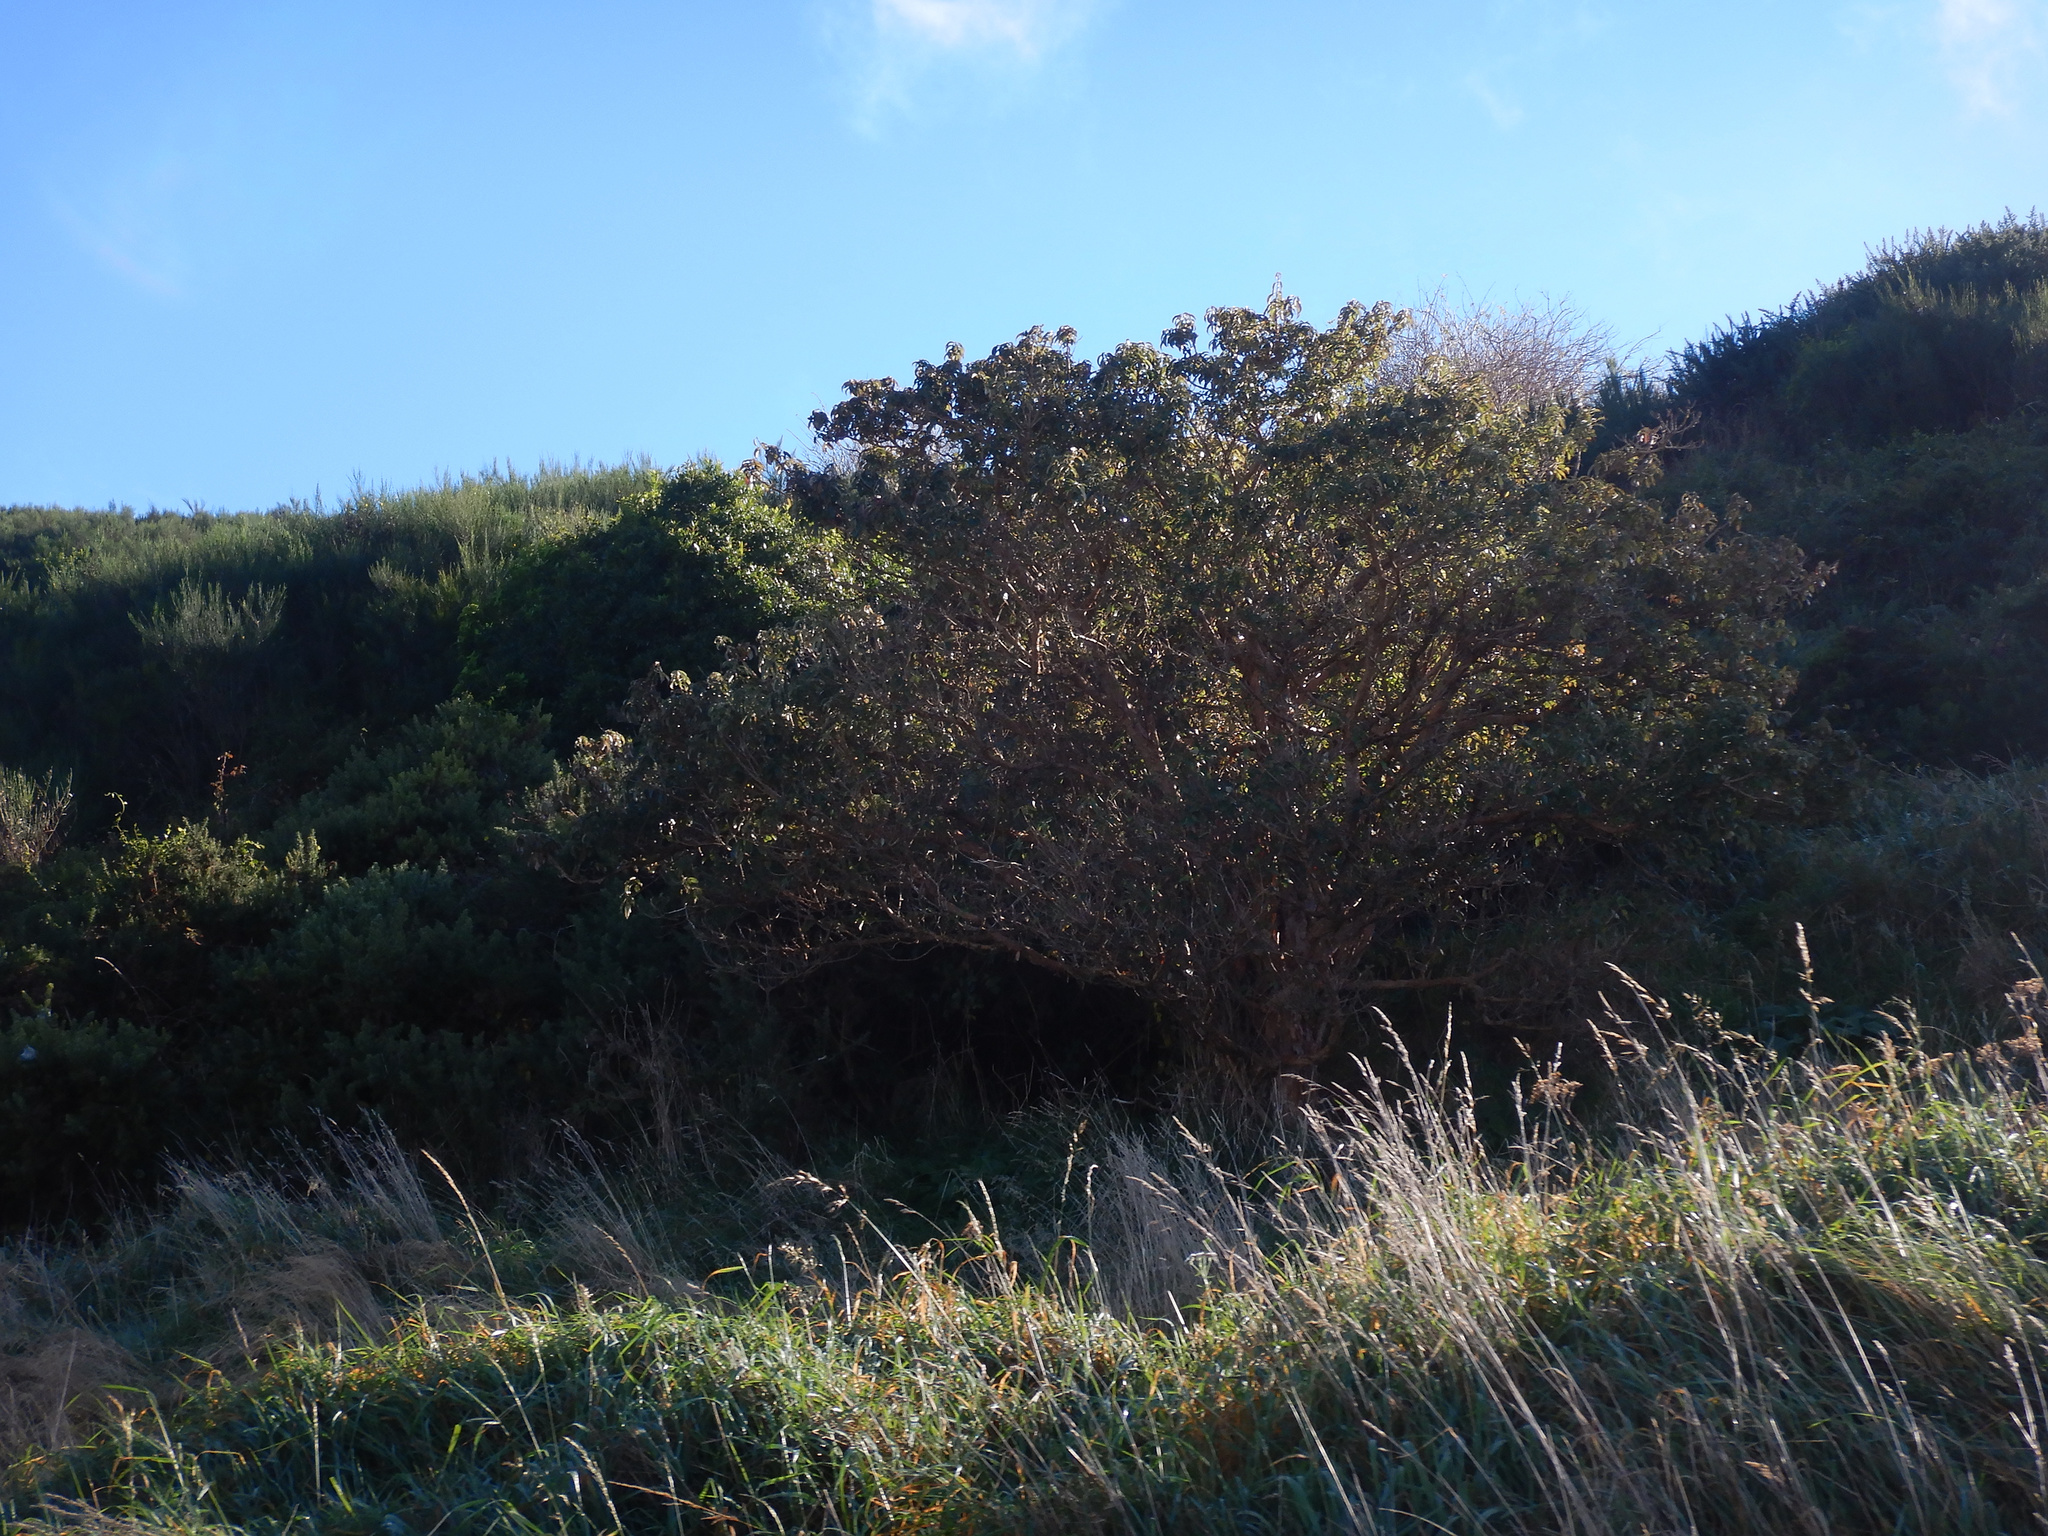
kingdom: Plantae
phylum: Tracheophyta
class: Magnoliopsida
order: Myrtales
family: Onagraceae
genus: Fuchsia
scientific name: Fuchsia excorticata
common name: Tree fuchsia
